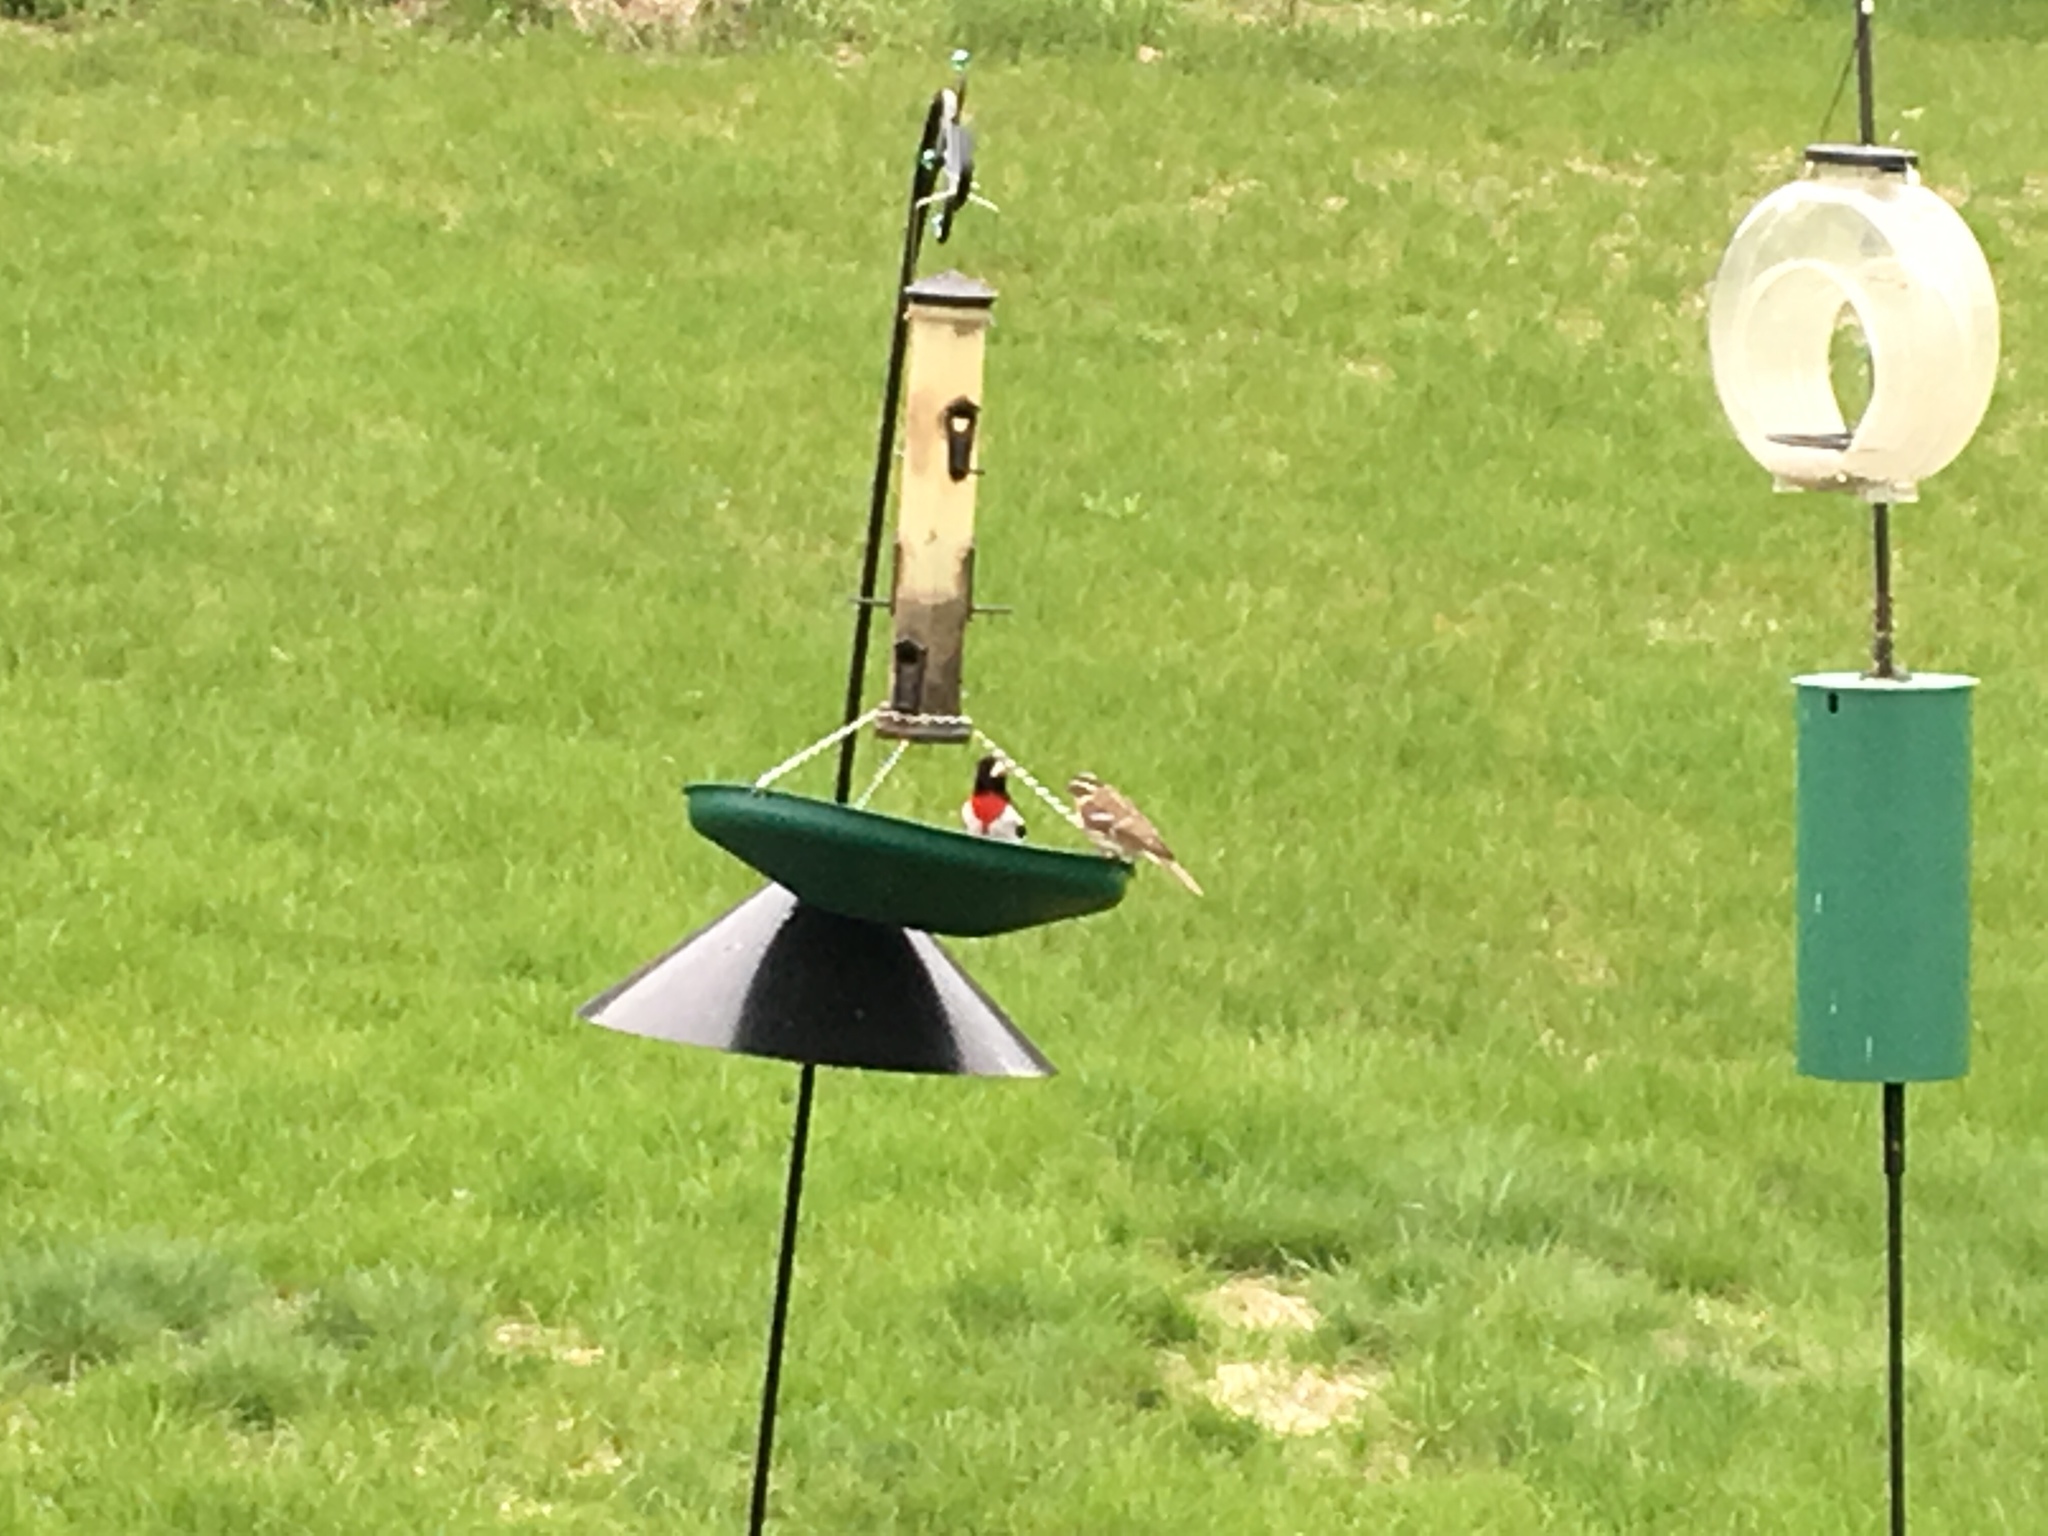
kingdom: Animalia
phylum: Chordata
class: Aves
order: Passeriformes
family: Cardinalidae
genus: Pheucticus
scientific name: Pheucticus ludovicianus
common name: Rose-breasted grosbeak
